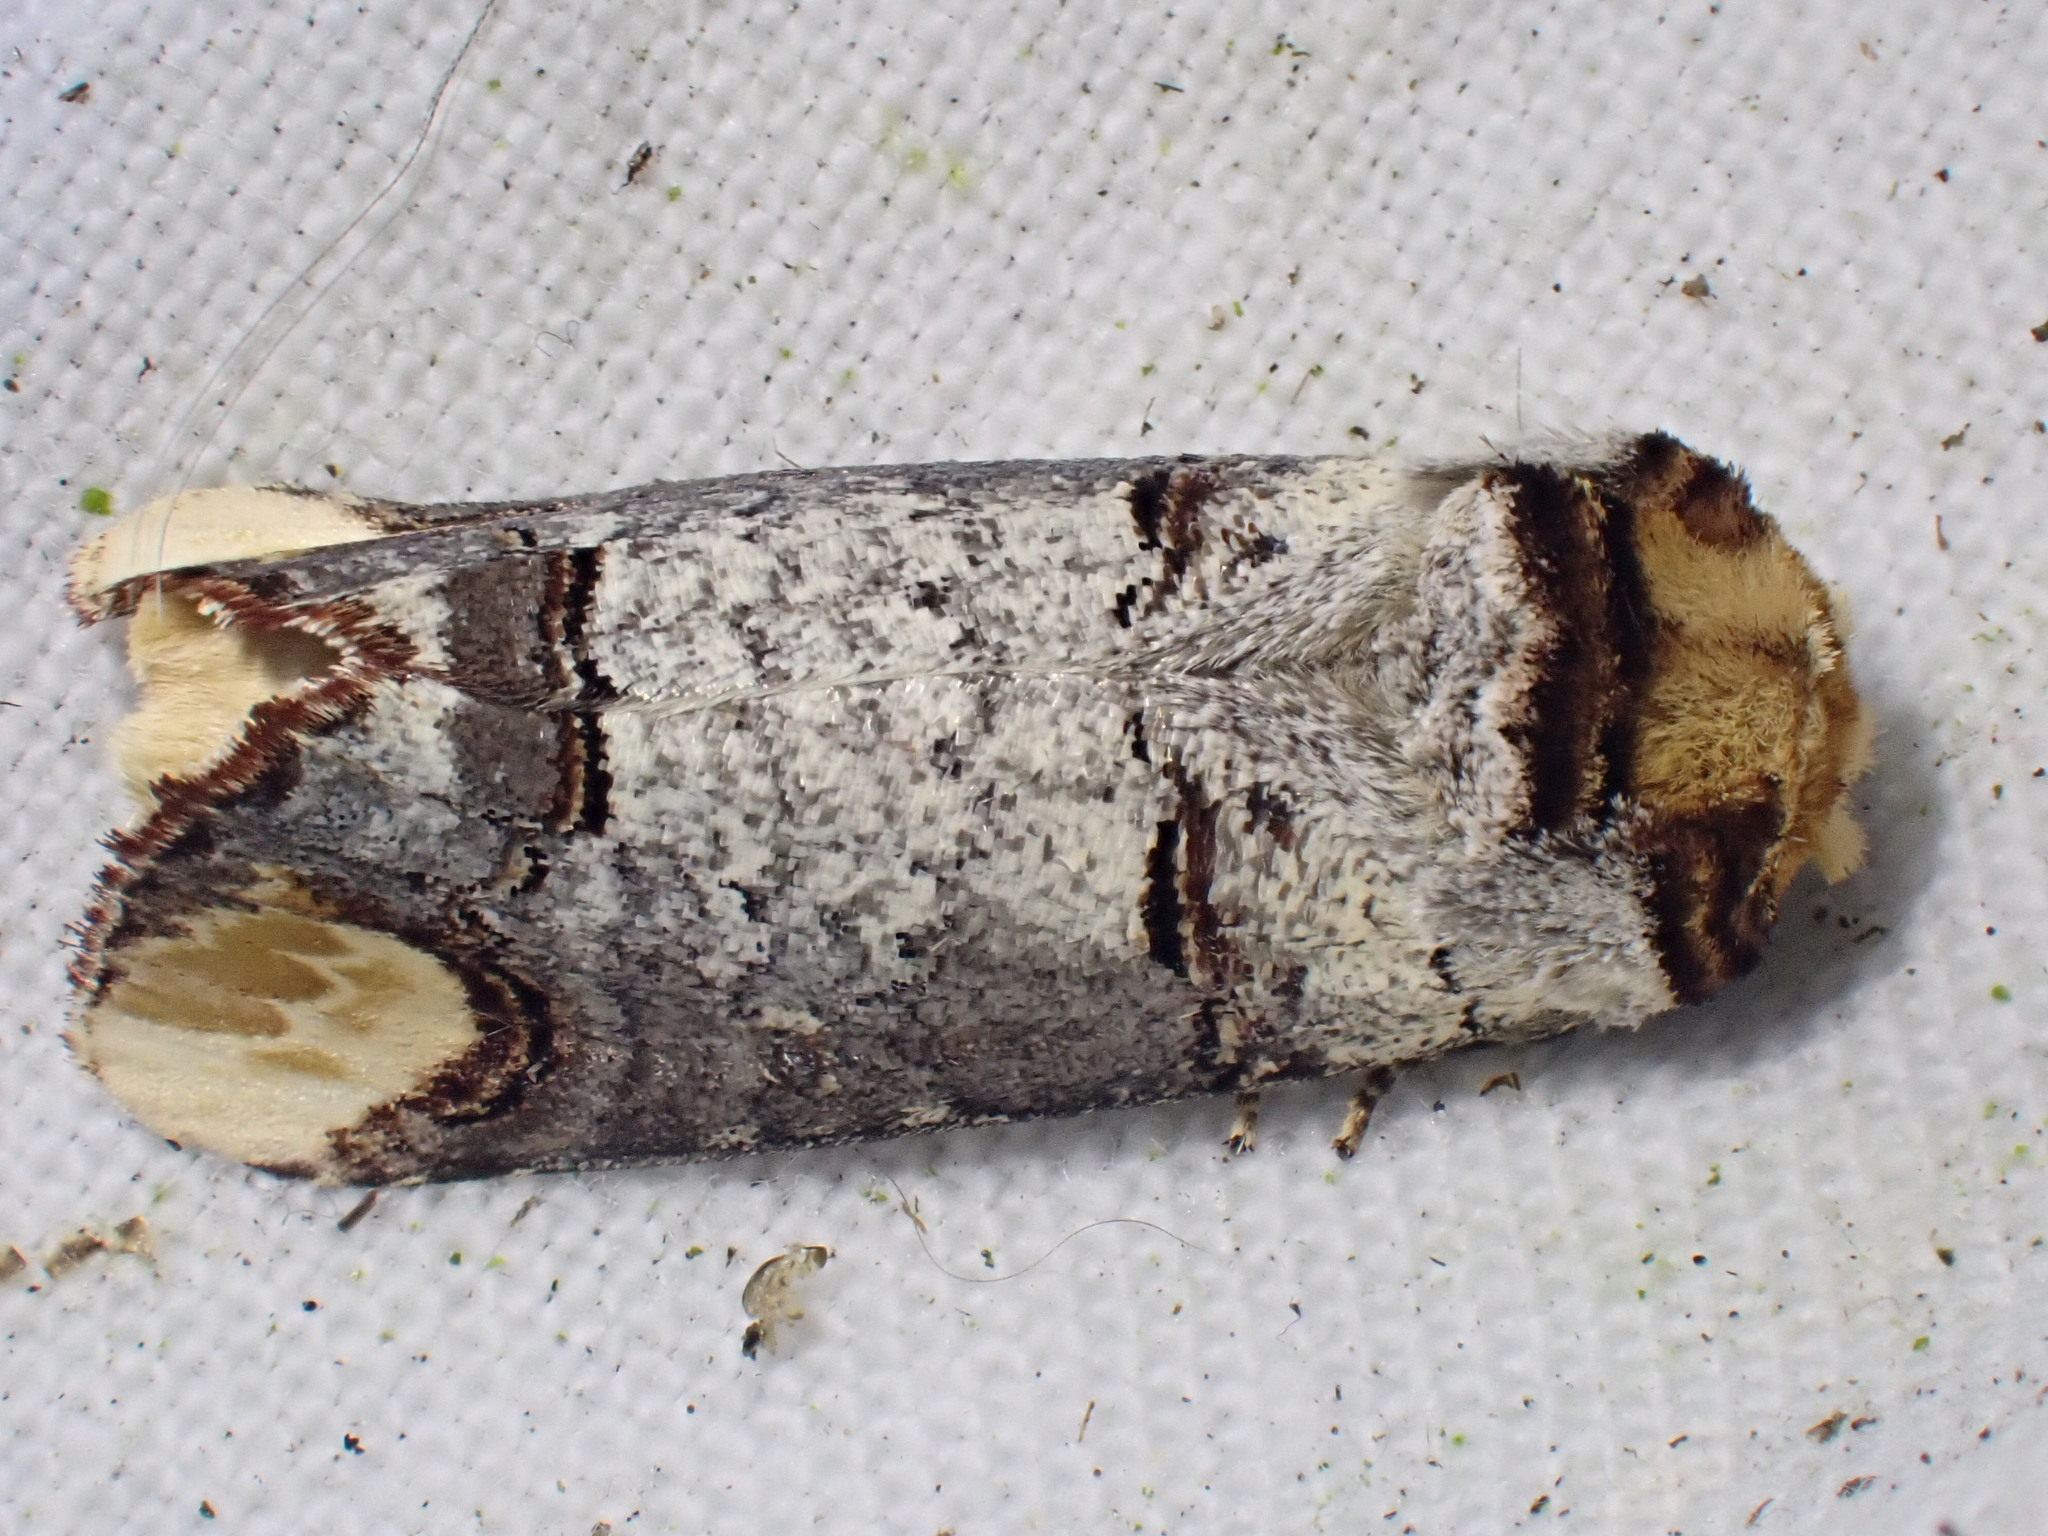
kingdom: Animalia
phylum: Arthropoda
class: Insecta
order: Lepidoptera
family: Notodontidae
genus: Phalera
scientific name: Phalera bucephala
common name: Buff-tip
